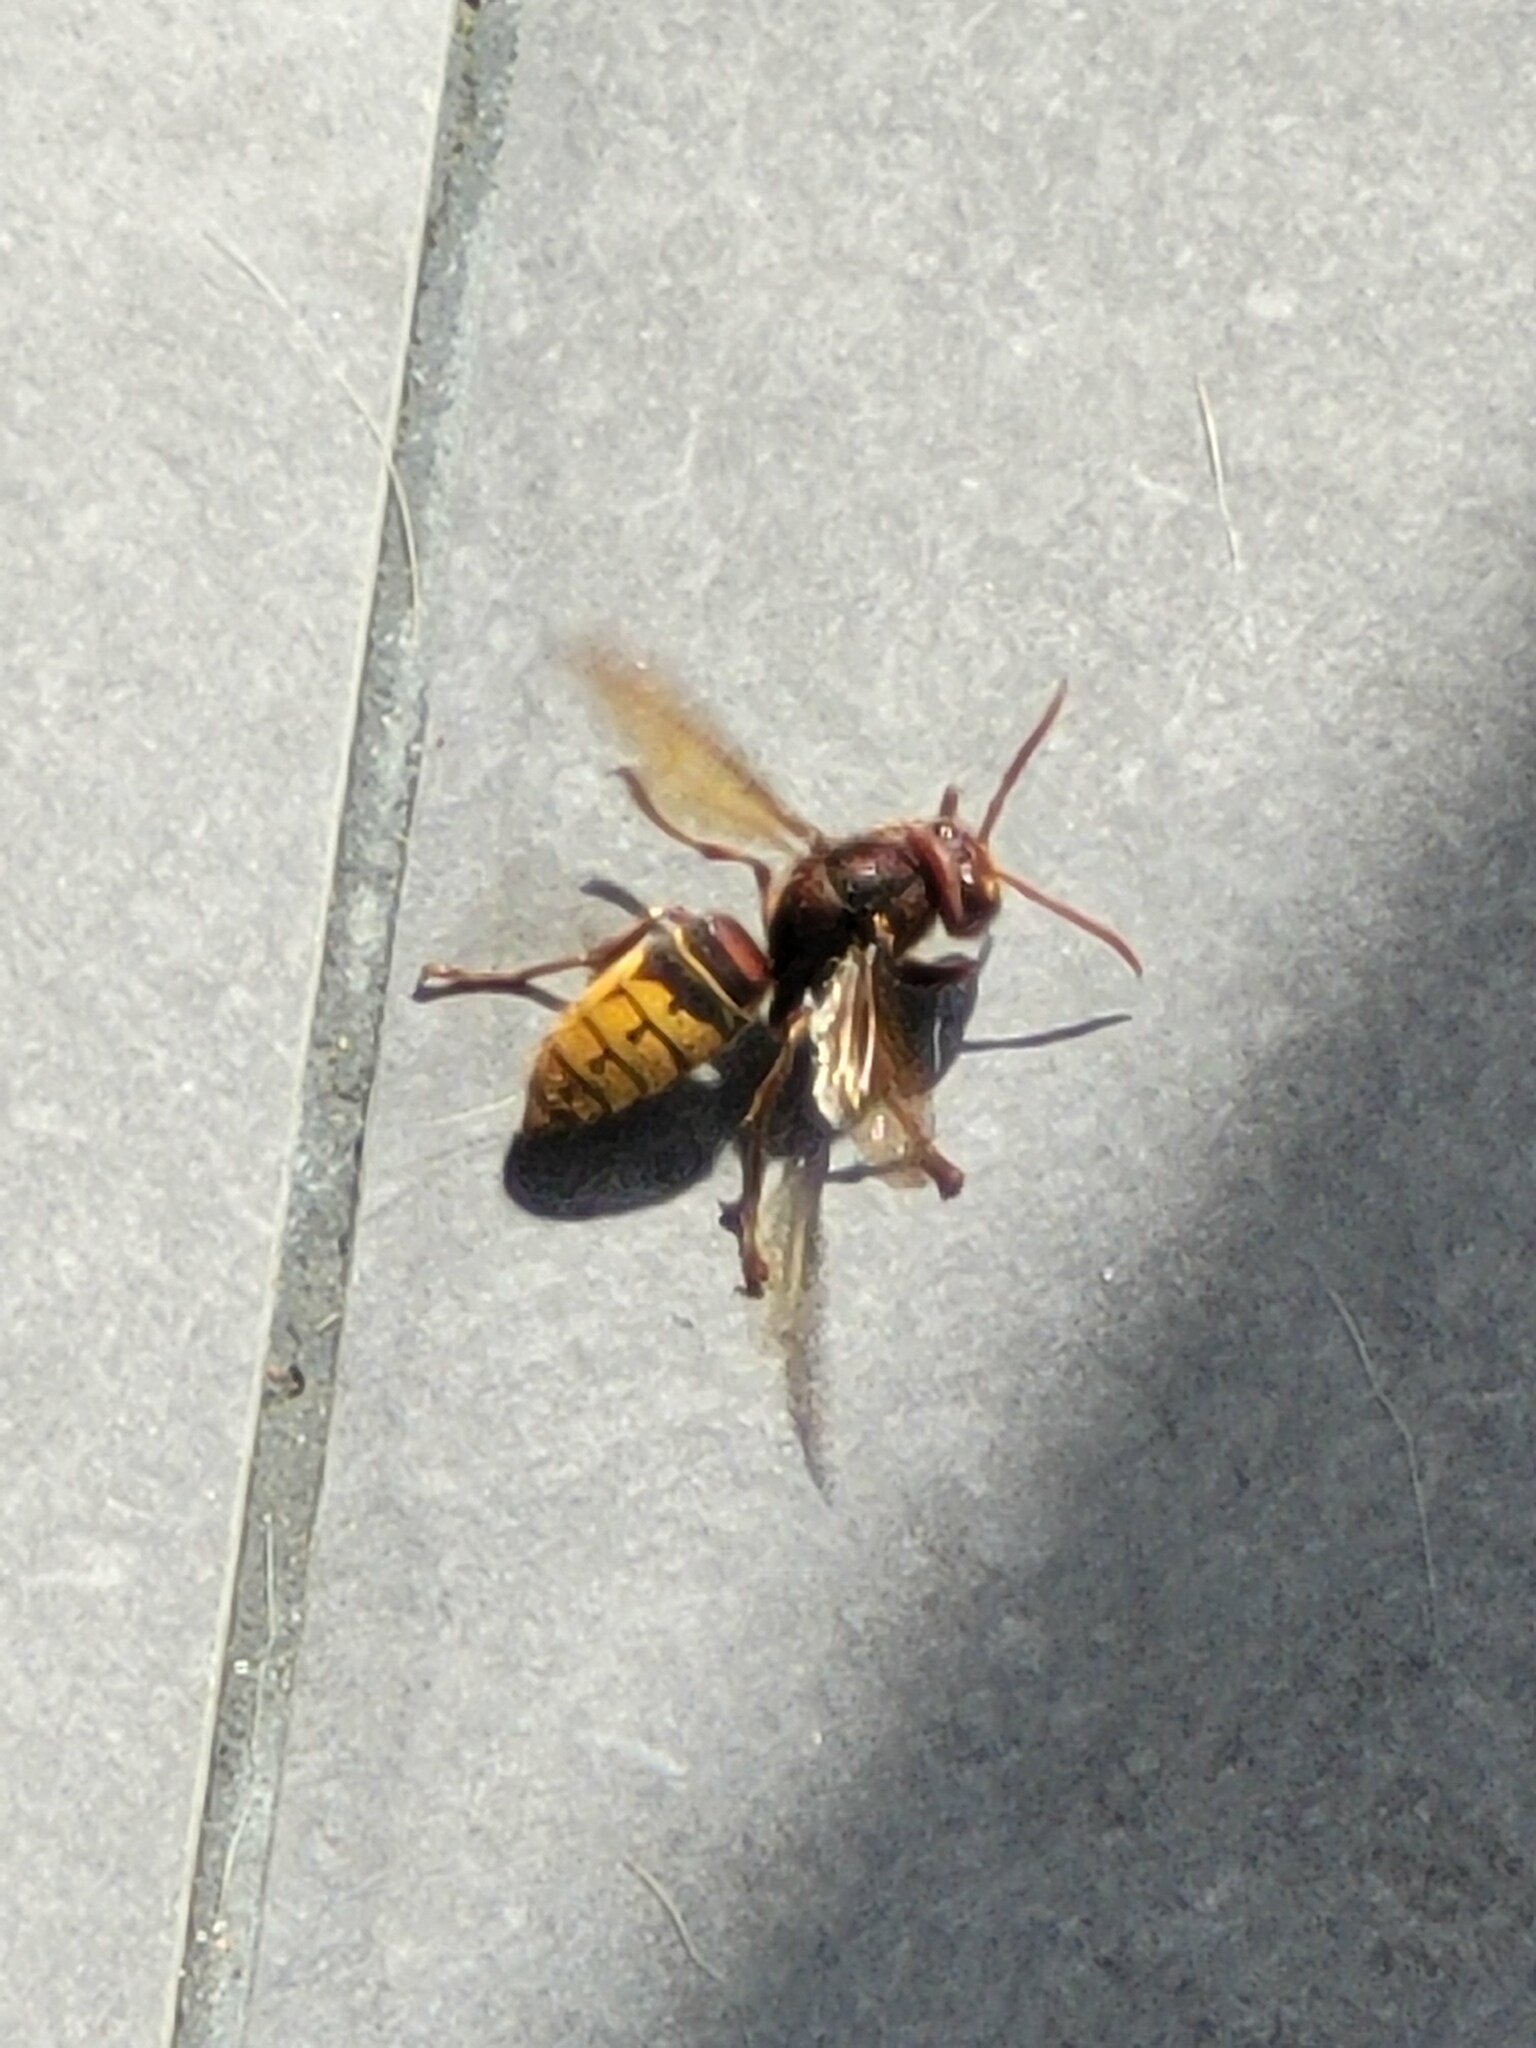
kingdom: Animalia
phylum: Arthropoda
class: Insecta
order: Hymenoptera
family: Vespidae
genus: Vespa
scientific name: Vespa crabro
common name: Hornet
